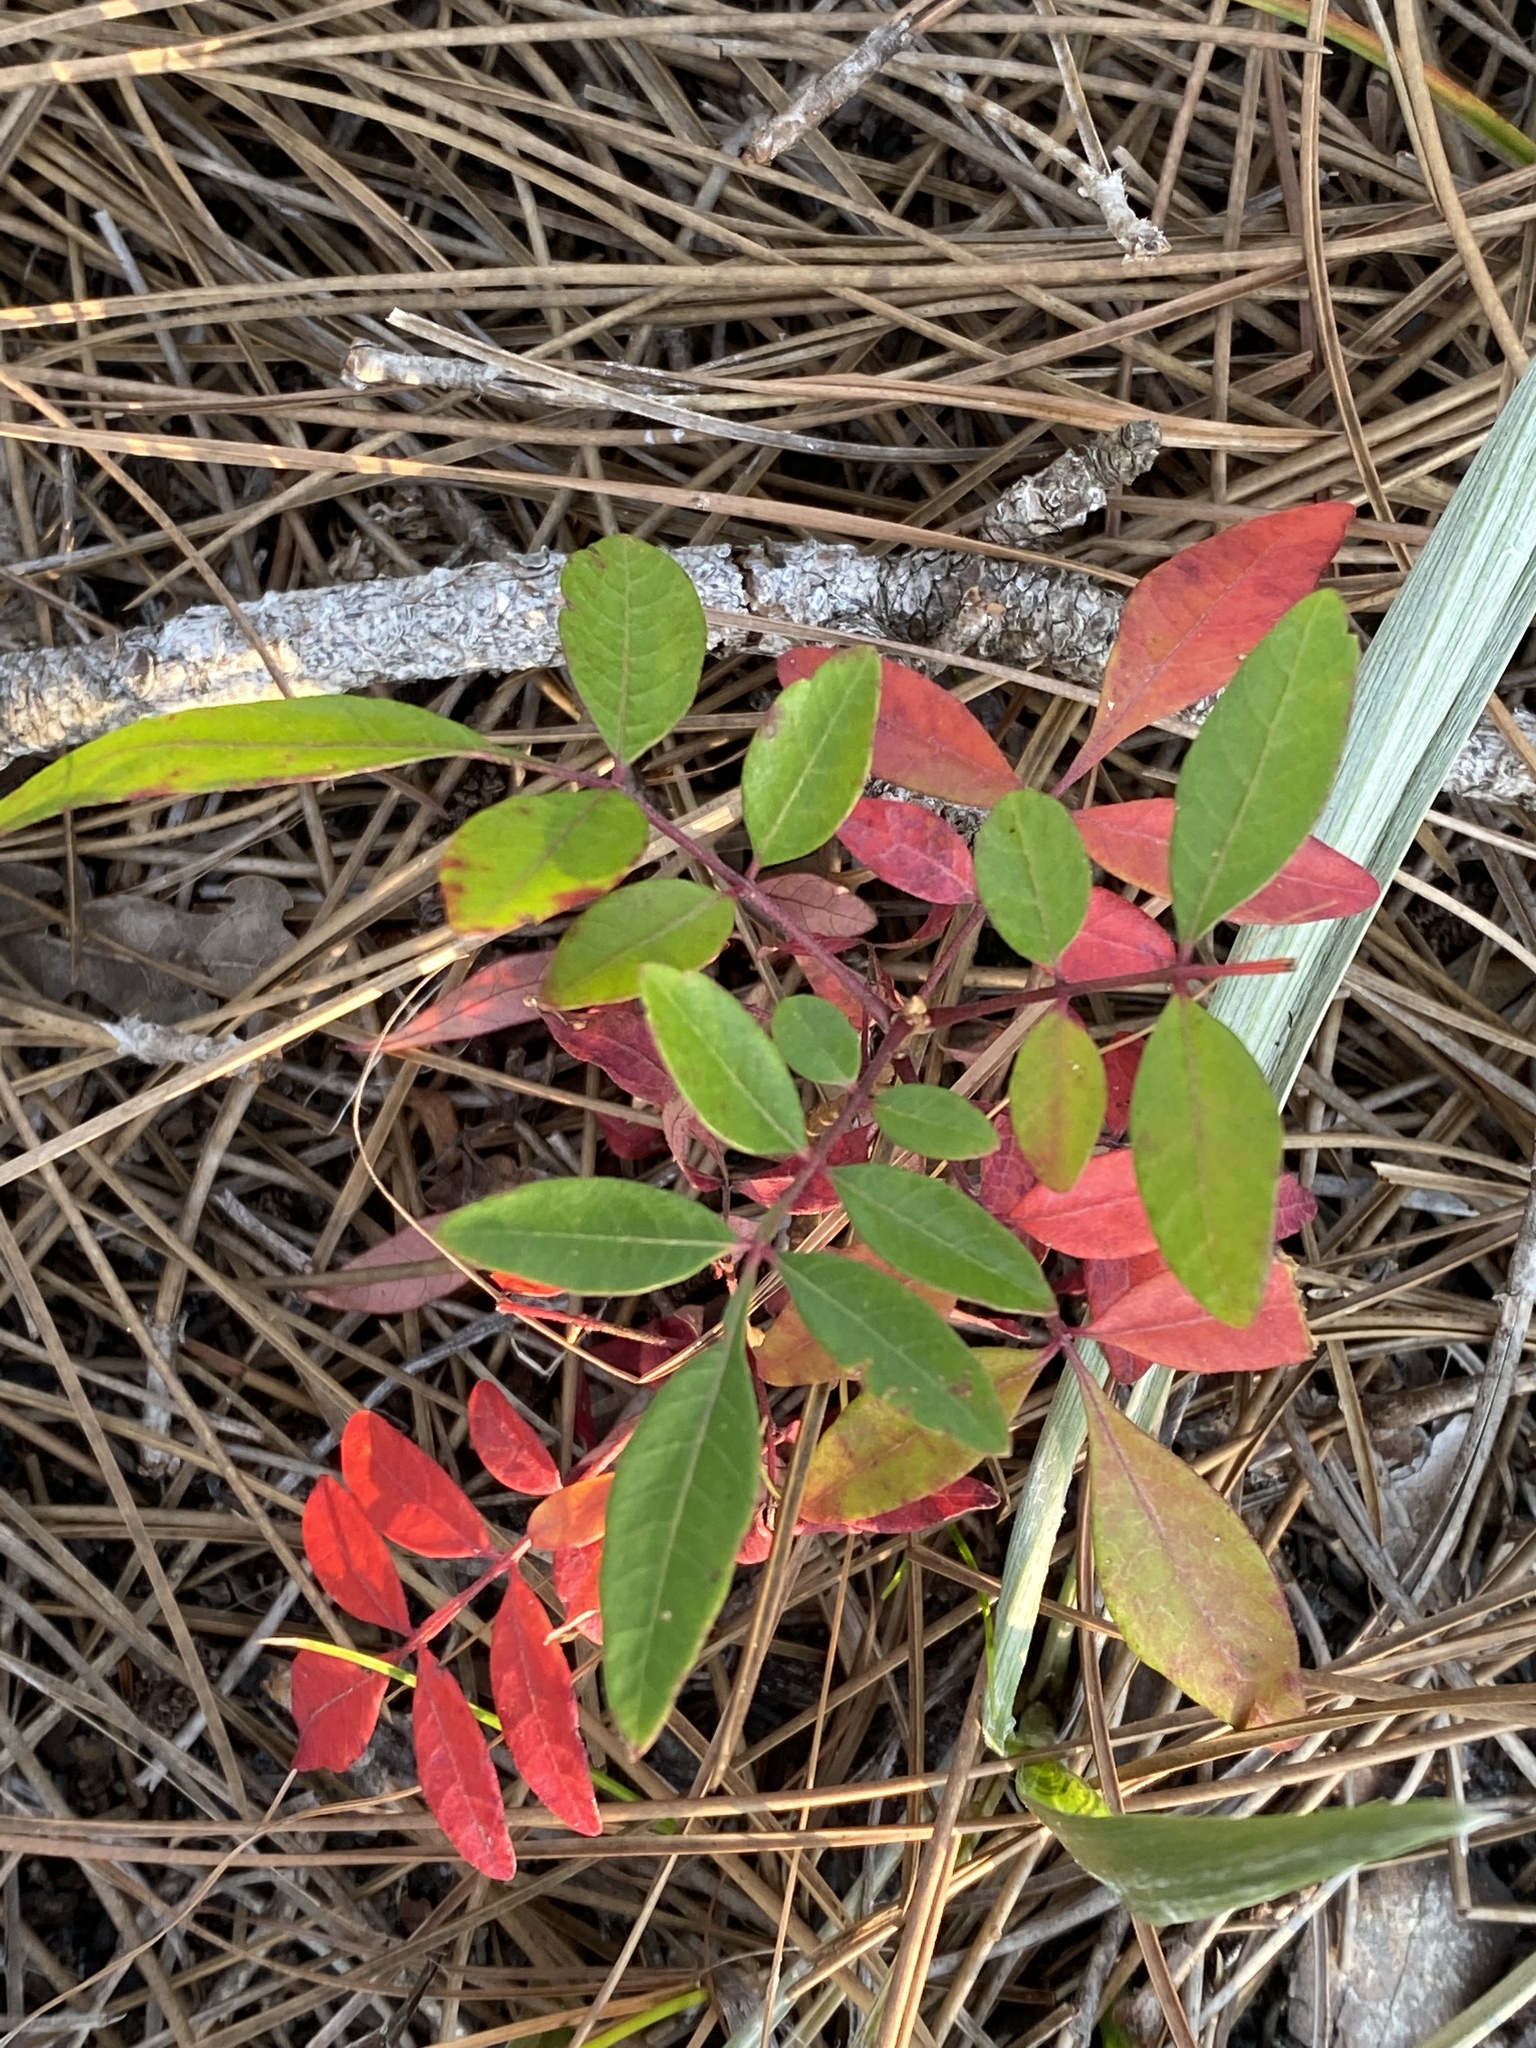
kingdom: Plantae
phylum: Tracheophyta
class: Magnoliopsida
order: Sapindales
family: Anacardiaceae
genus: Rhus
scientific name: Rhus copallina
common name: Shining sumac
